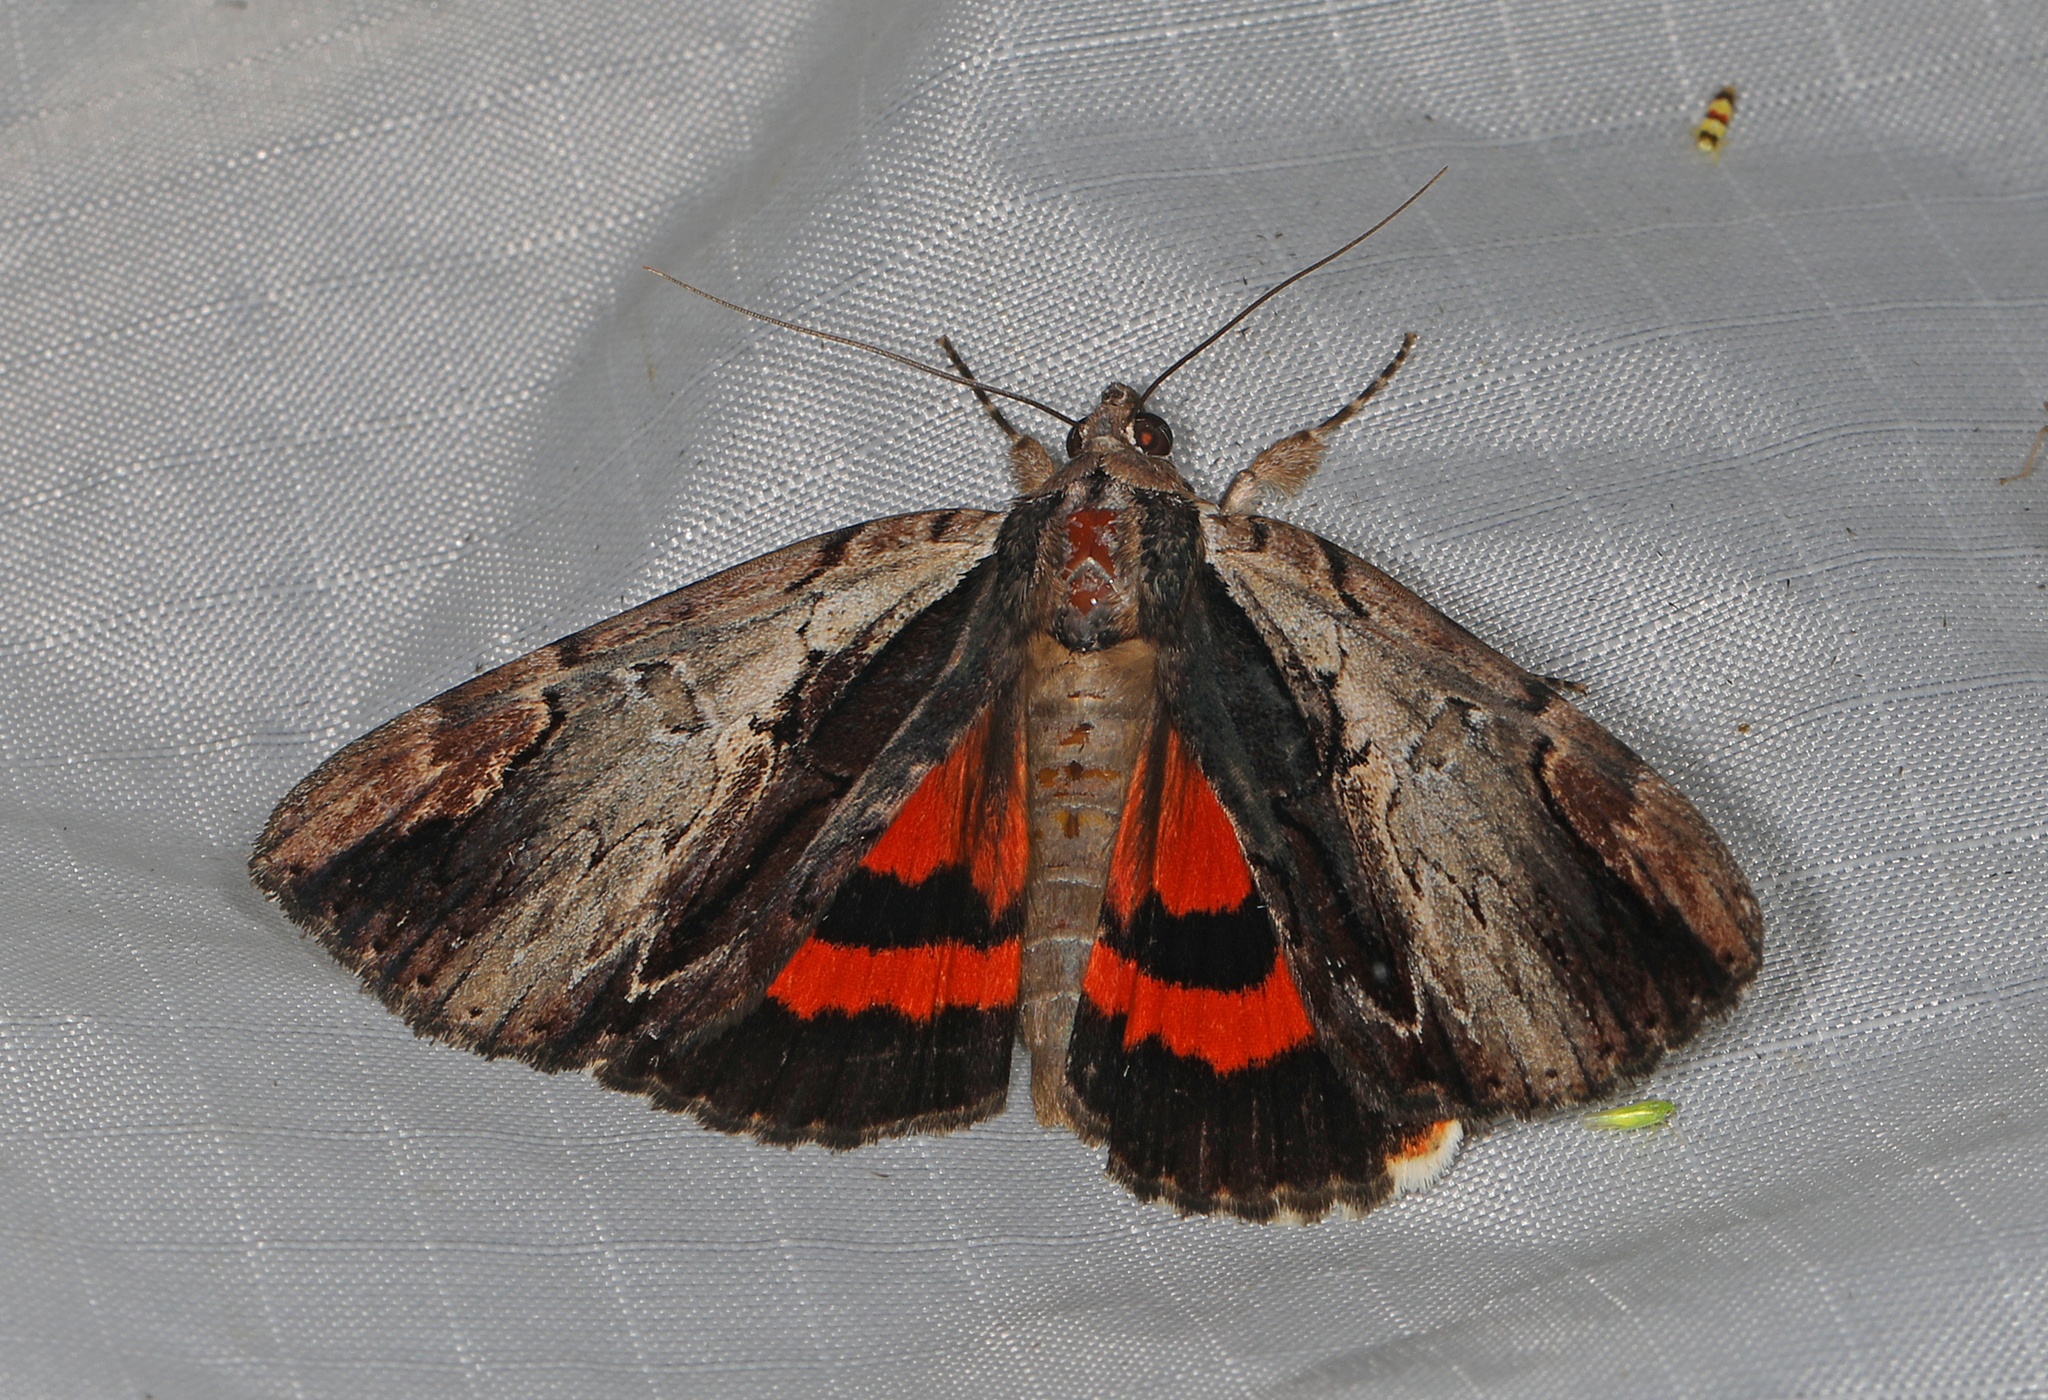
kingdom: Animalia
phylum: Arthropoda
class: Insecta
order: Lepidoptera
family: Erebidae
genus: Catocala
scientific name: Catocala ultronia
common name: Ultronia underwing
